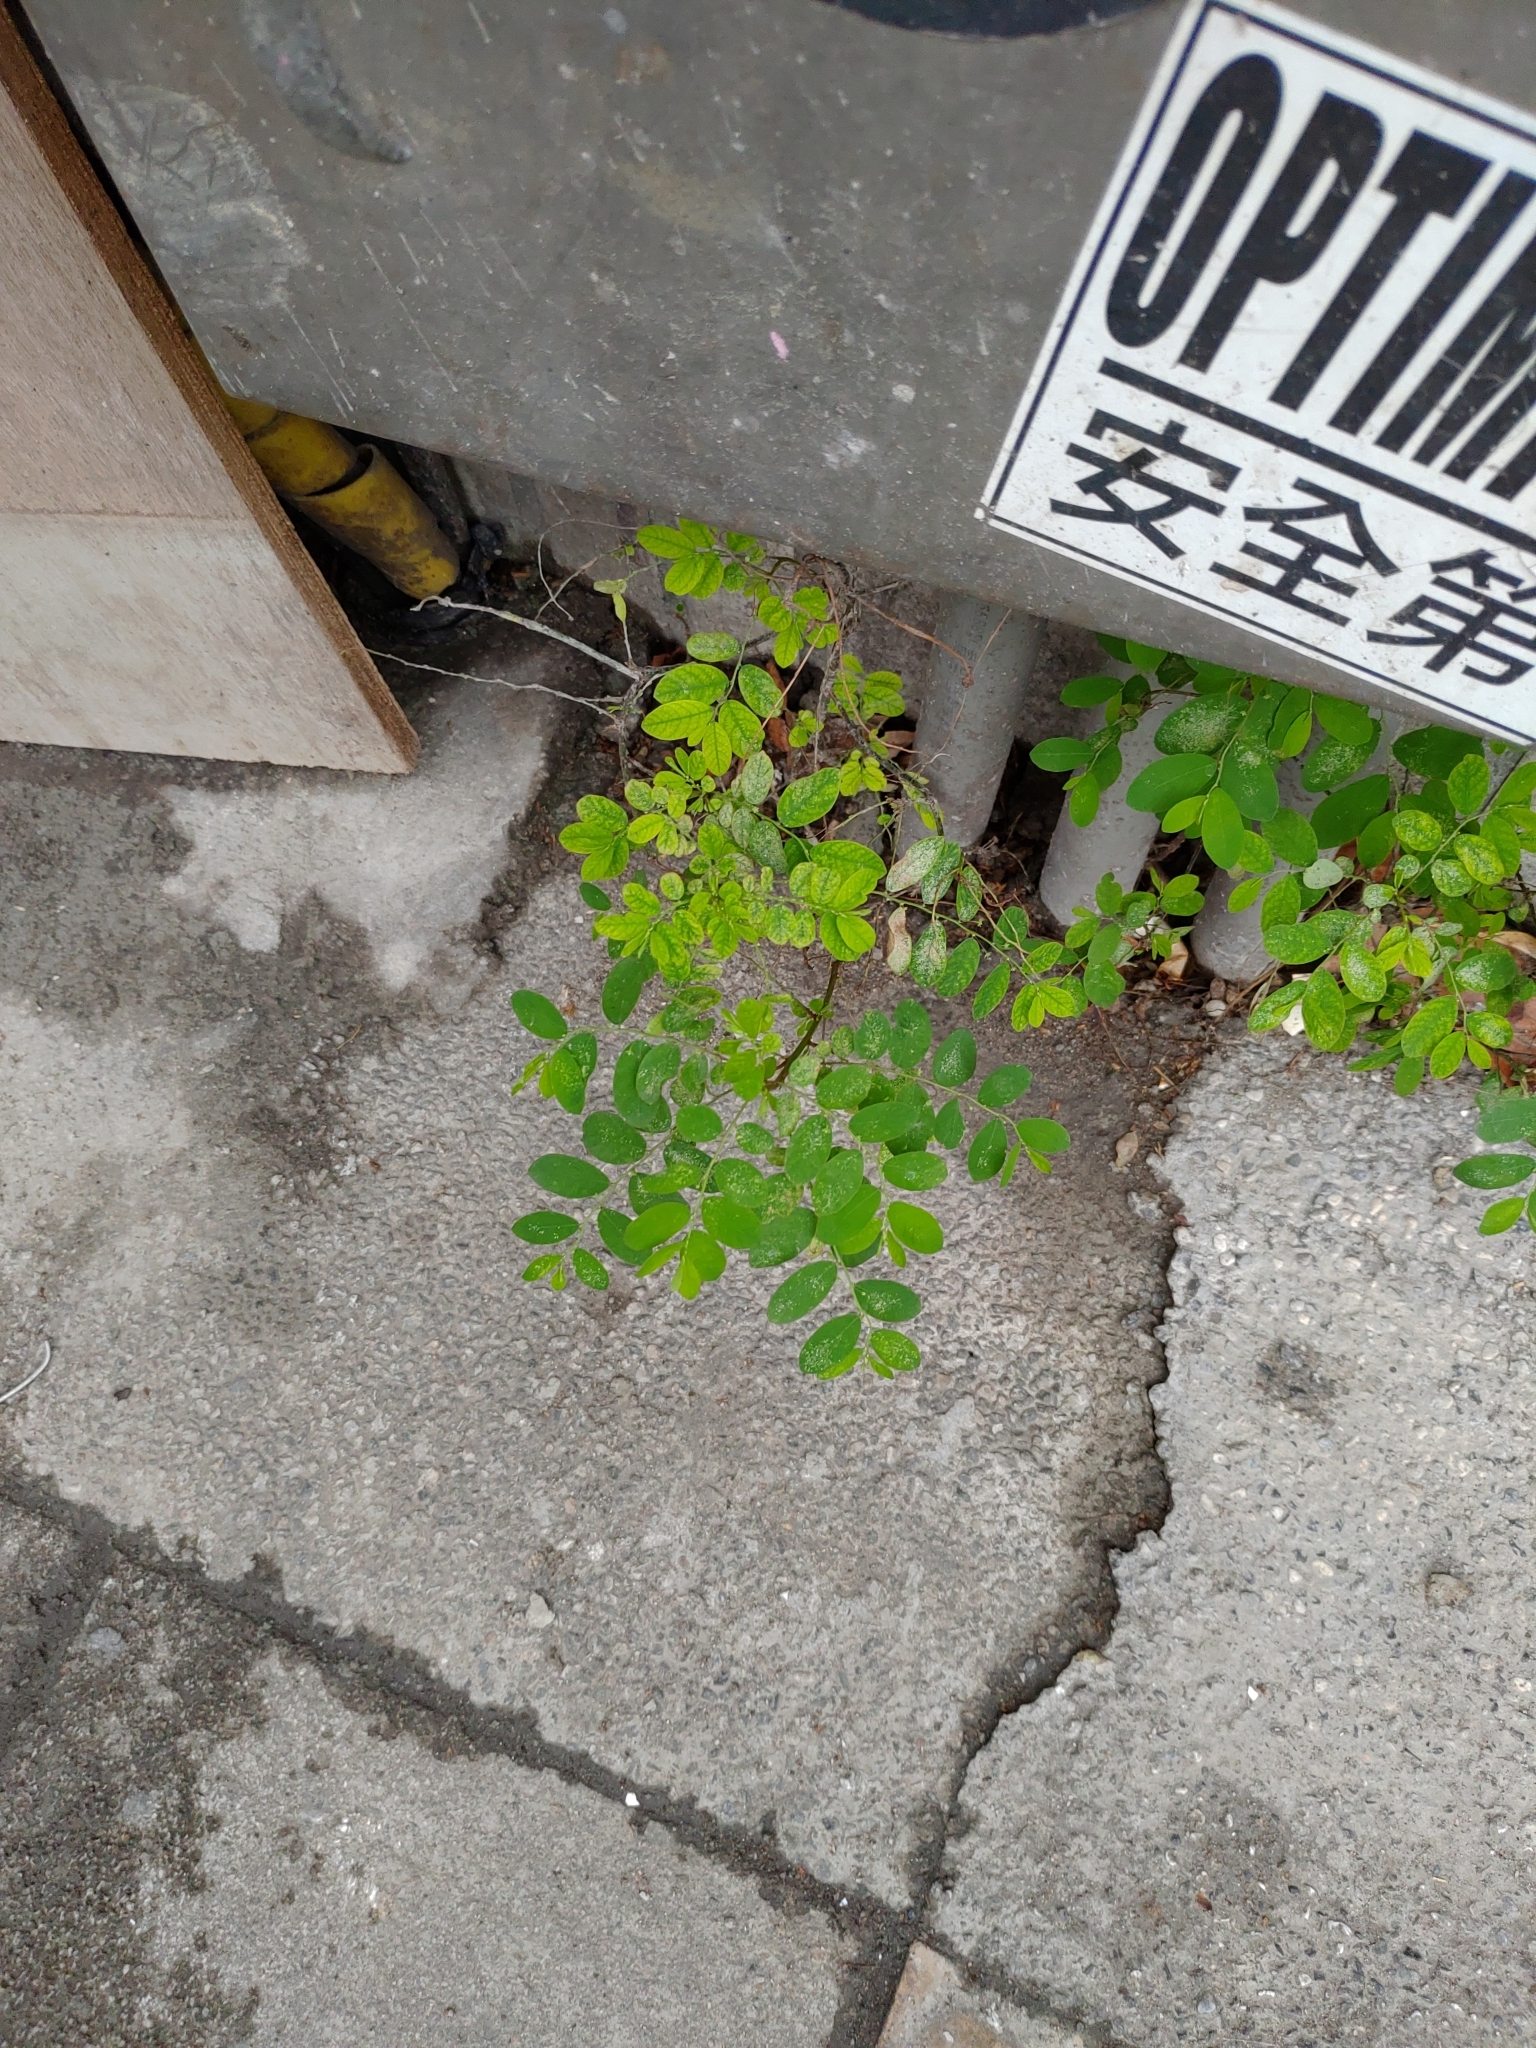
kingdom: Plantae
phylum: Tracheophyta
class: Magnoliopsida
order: Malpighiales
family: Phyllanthaceae
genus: Phyllanthus
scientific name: Phyllanthus tenellus
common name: Mascarene island leaf-flower
